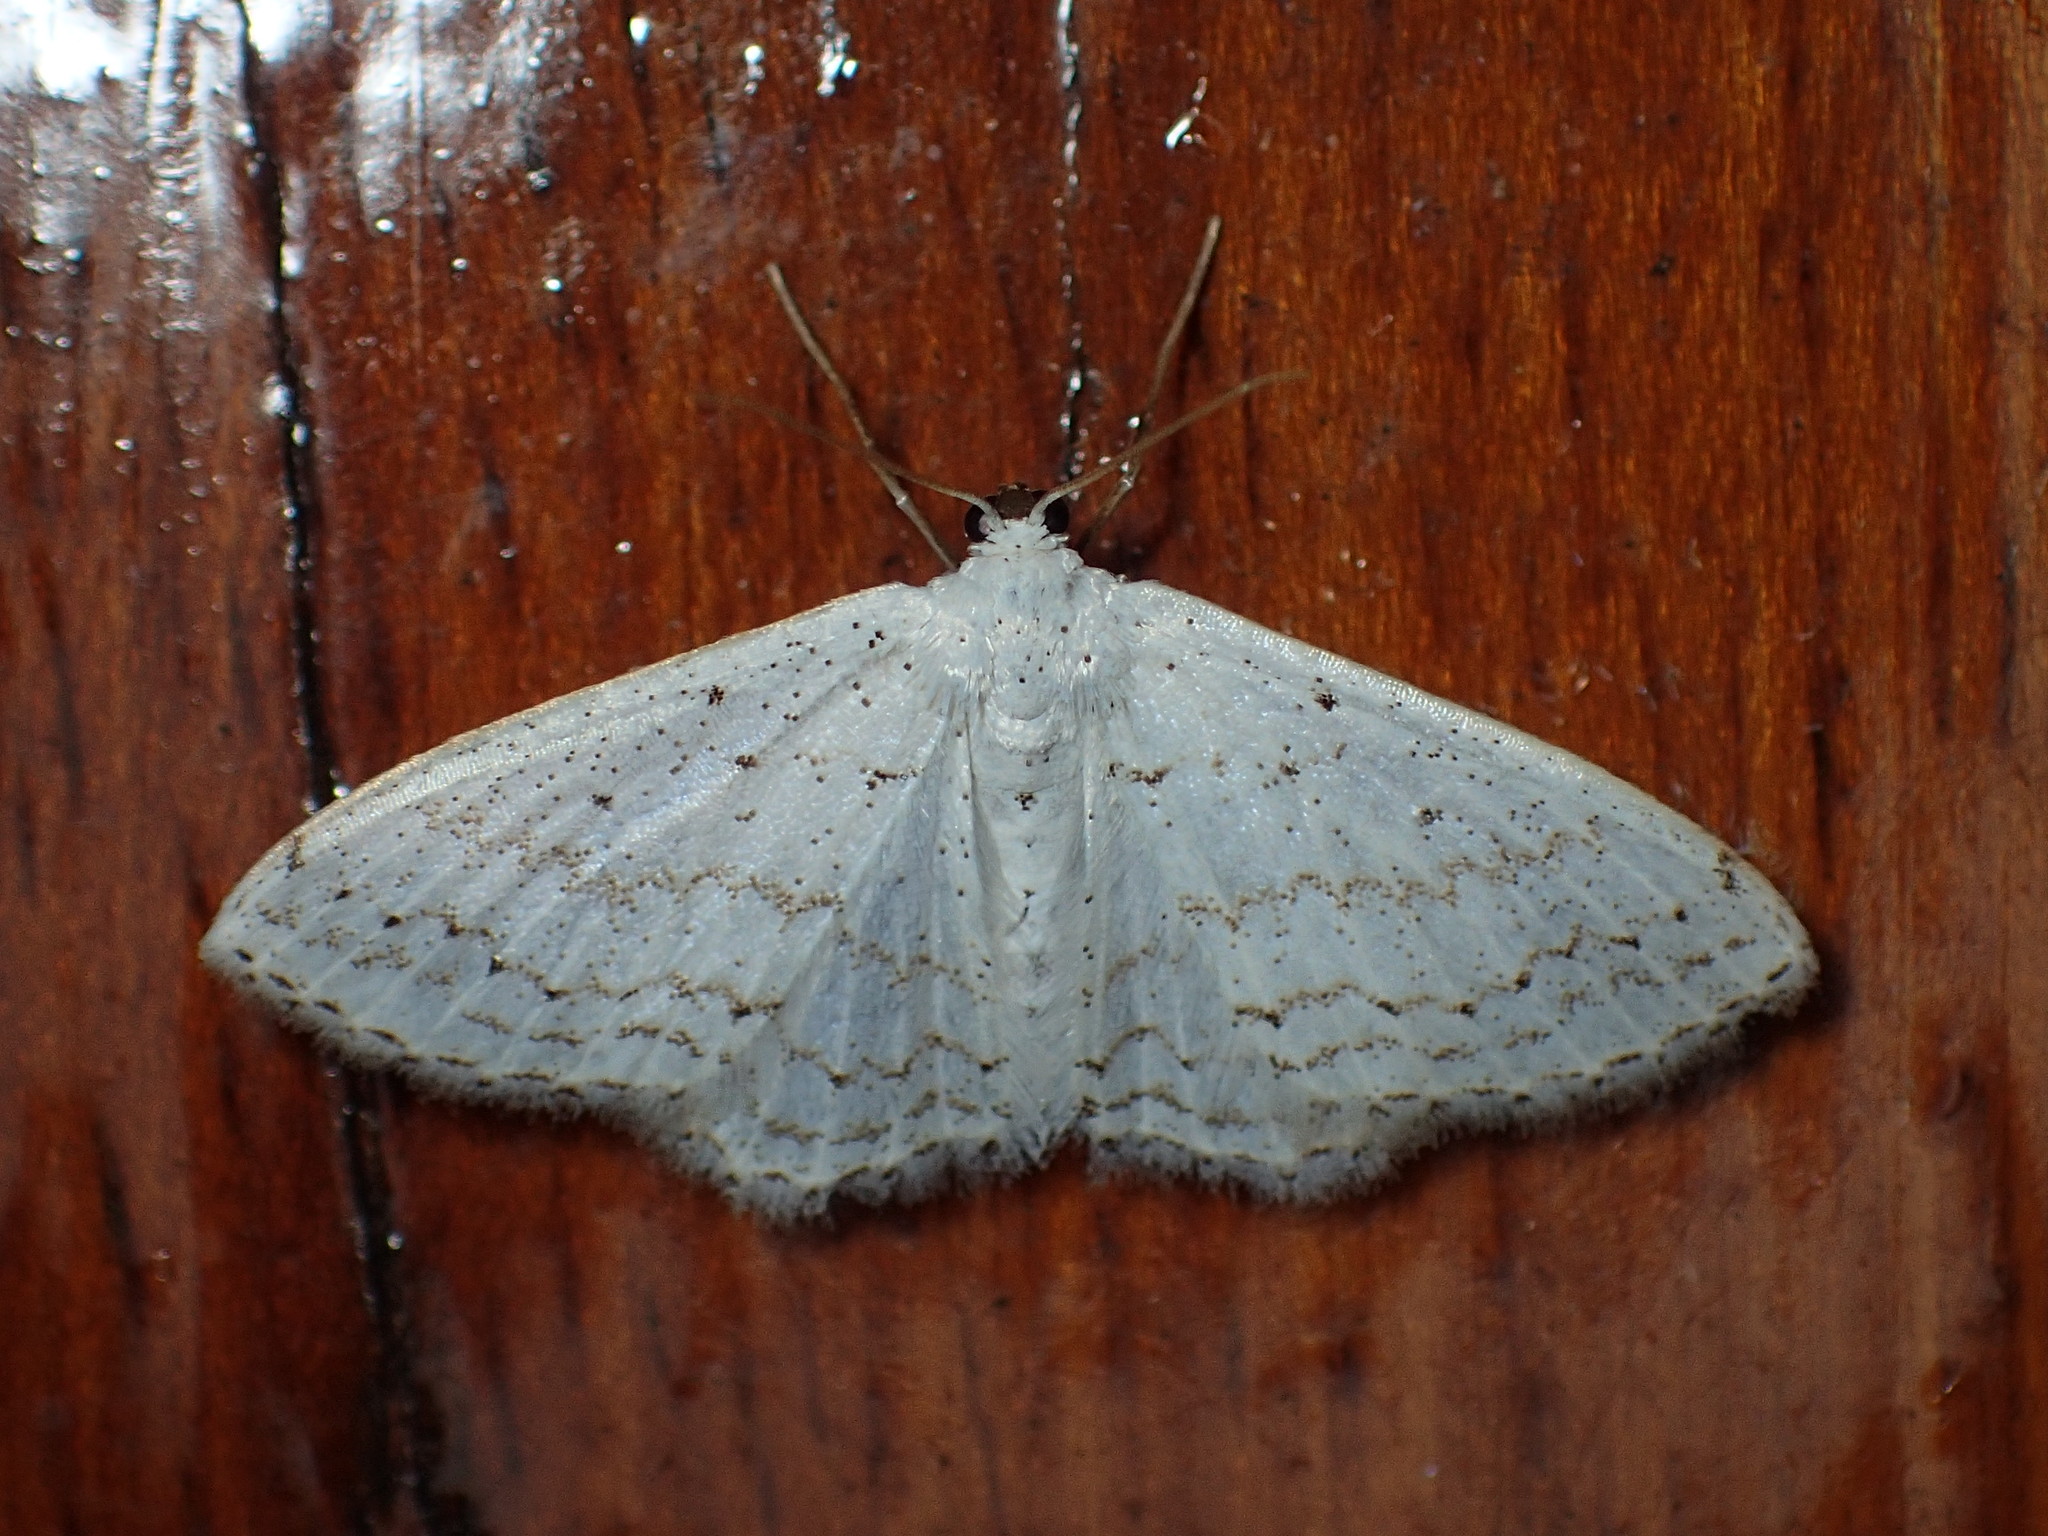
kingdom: Animalia
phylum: Arthropoda
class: Insecta
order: Lepidoptera
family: Geometridae
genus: Idaea
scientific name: Idaea tacturata
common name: Dot-lined wave
